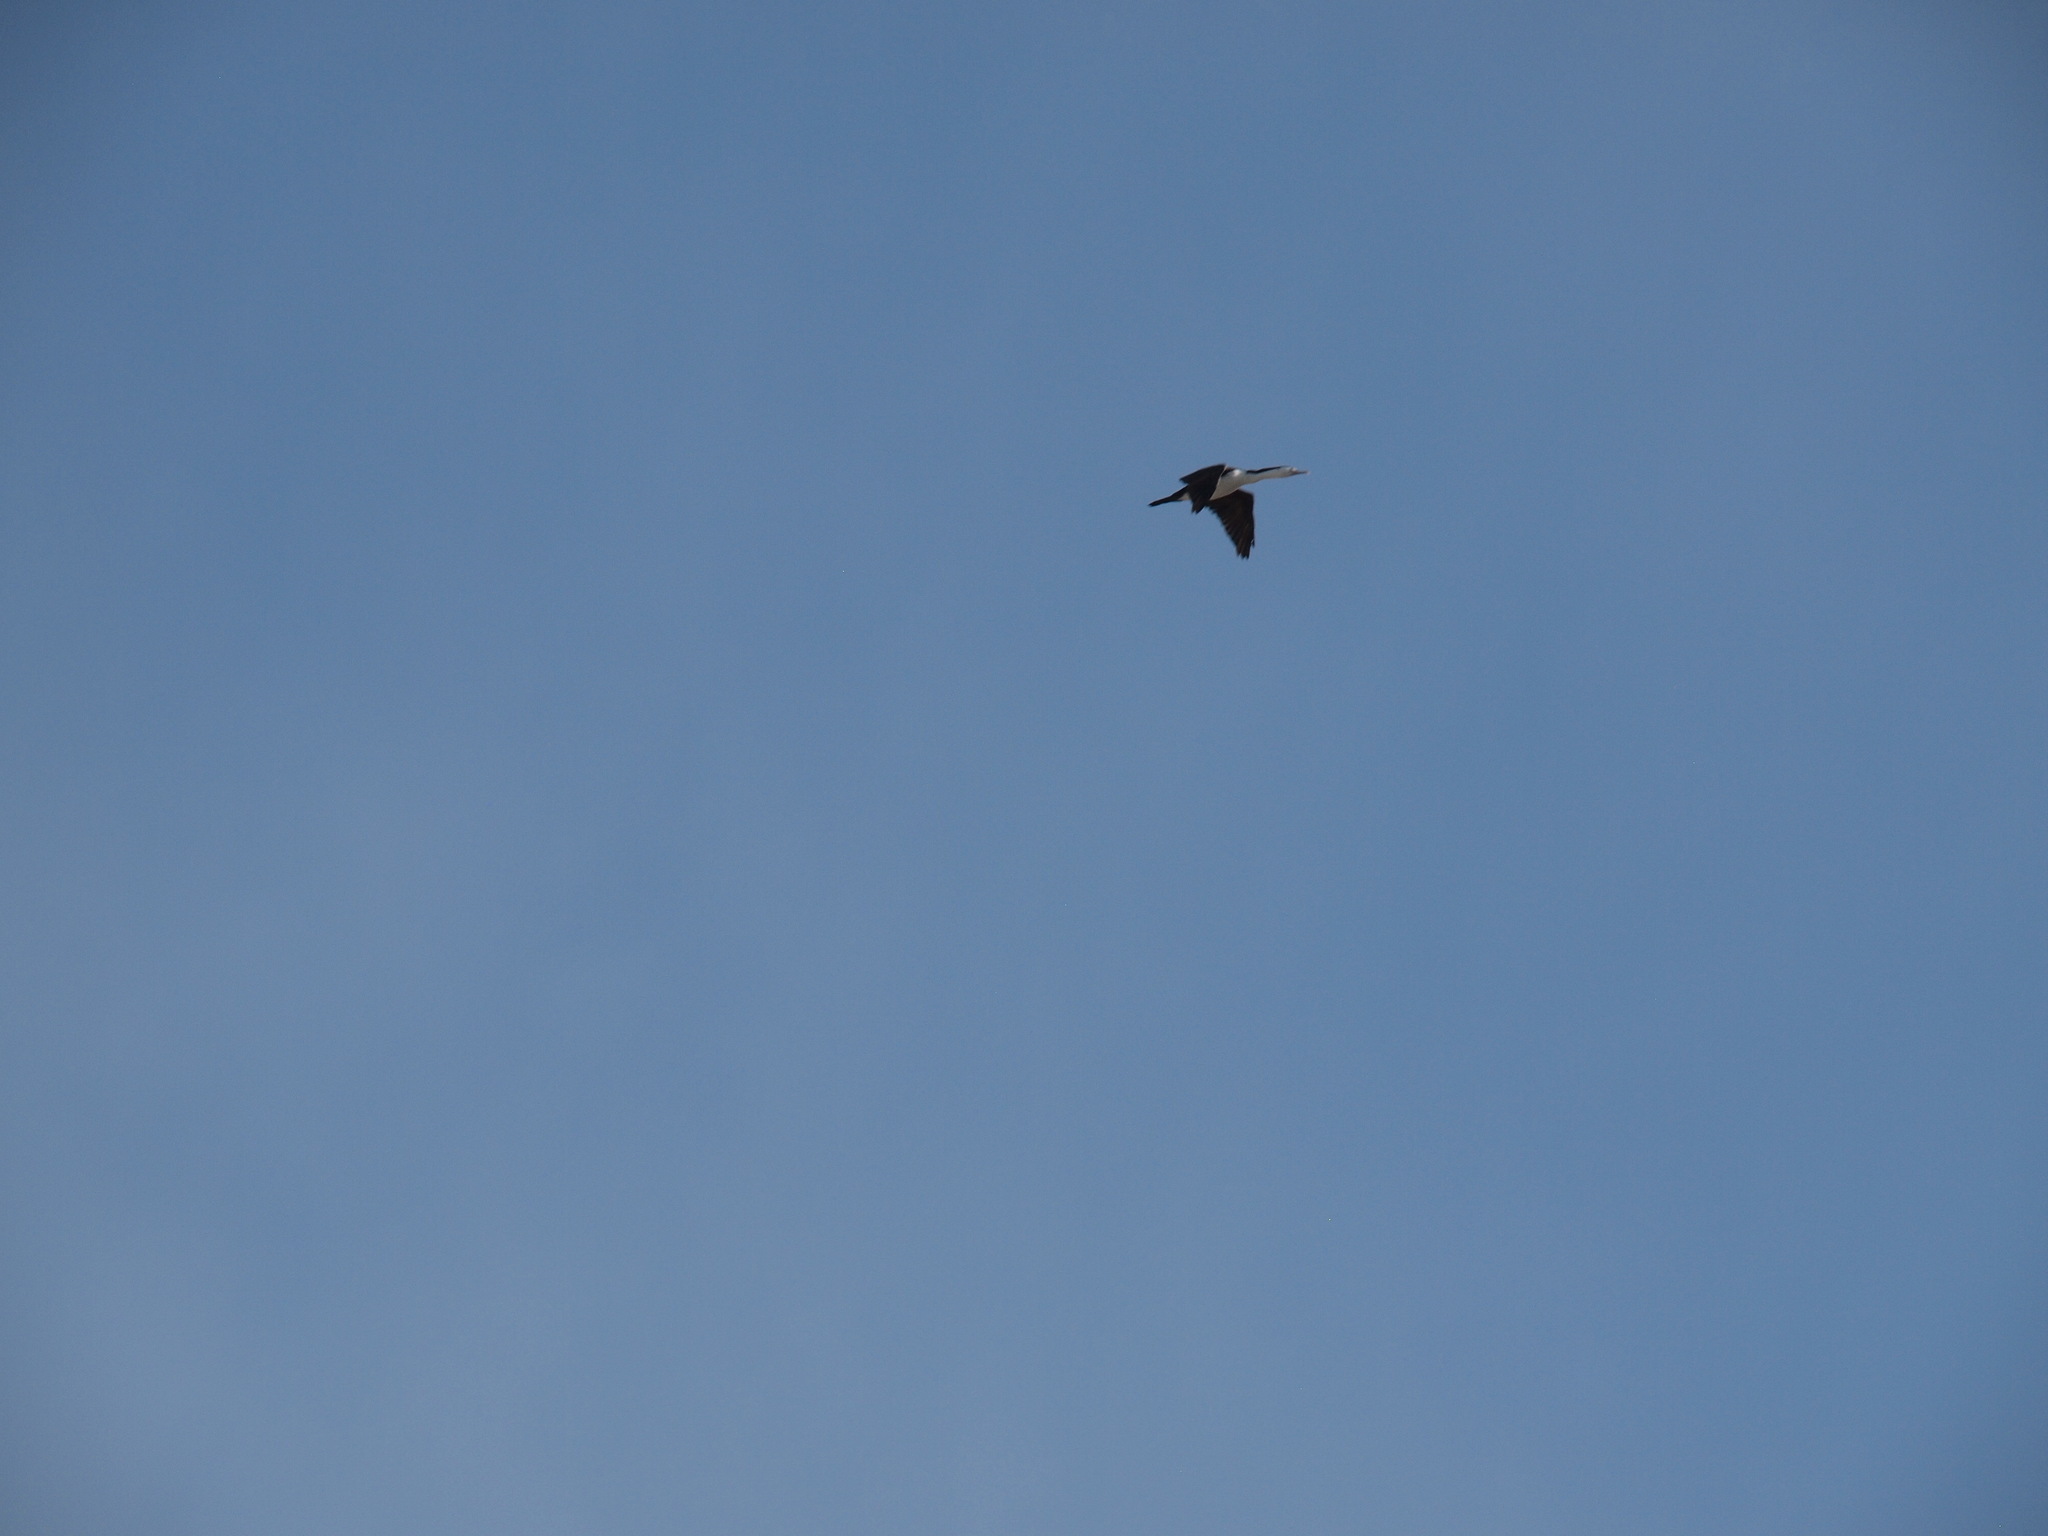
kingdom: Animalia
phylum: Chordata
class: Aves
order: Suliformes
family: Phalacrocoracidae
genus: Phalacrocorax
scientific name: Phalacrocorax varius
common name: Pied cormorant
